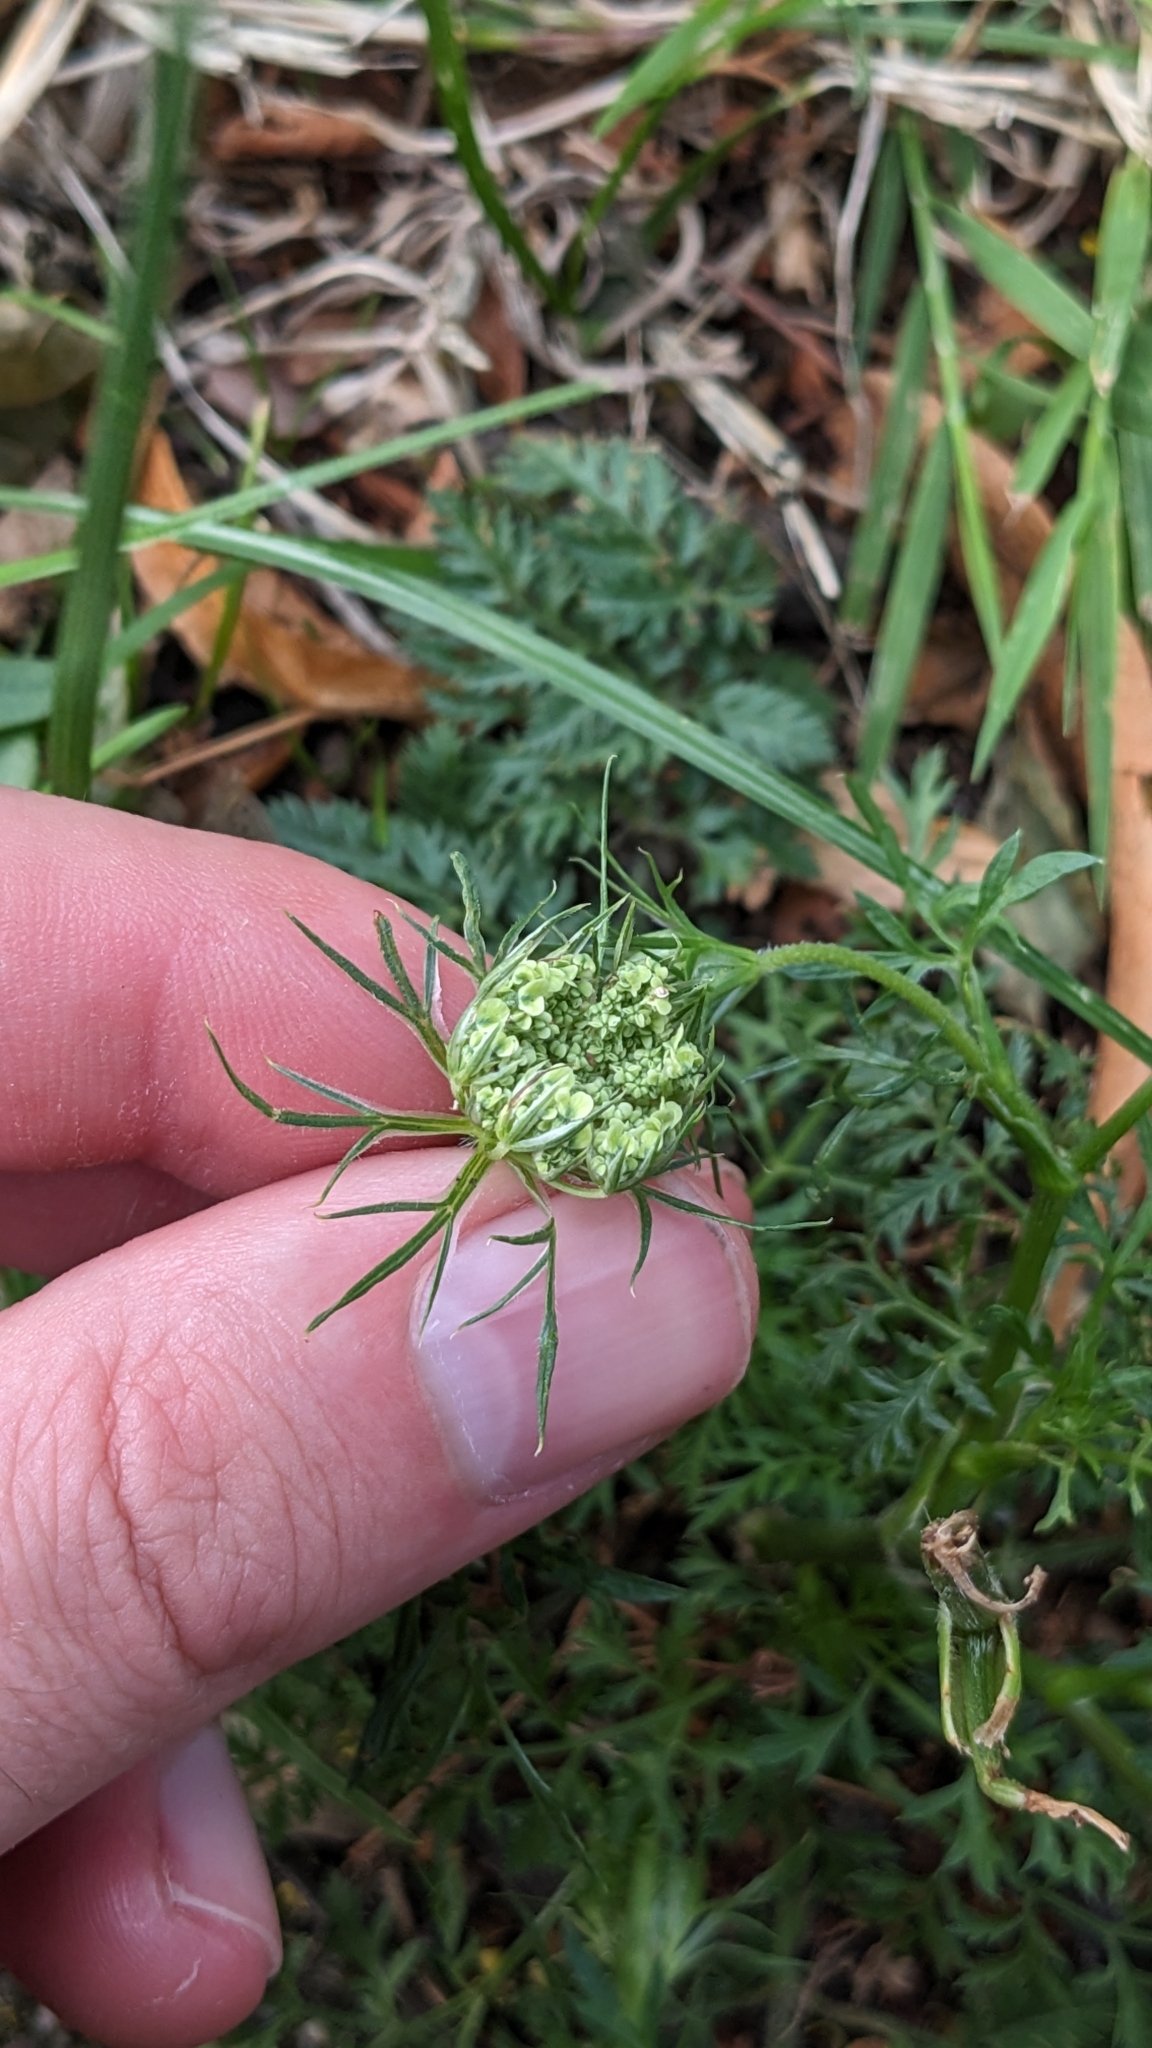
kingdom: Plantae
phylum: Tracheophyta
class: Magnoliopsida
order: Apiales
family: Apiaceae
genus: Daucus
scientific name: Daucus carota
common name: Wild carrot
